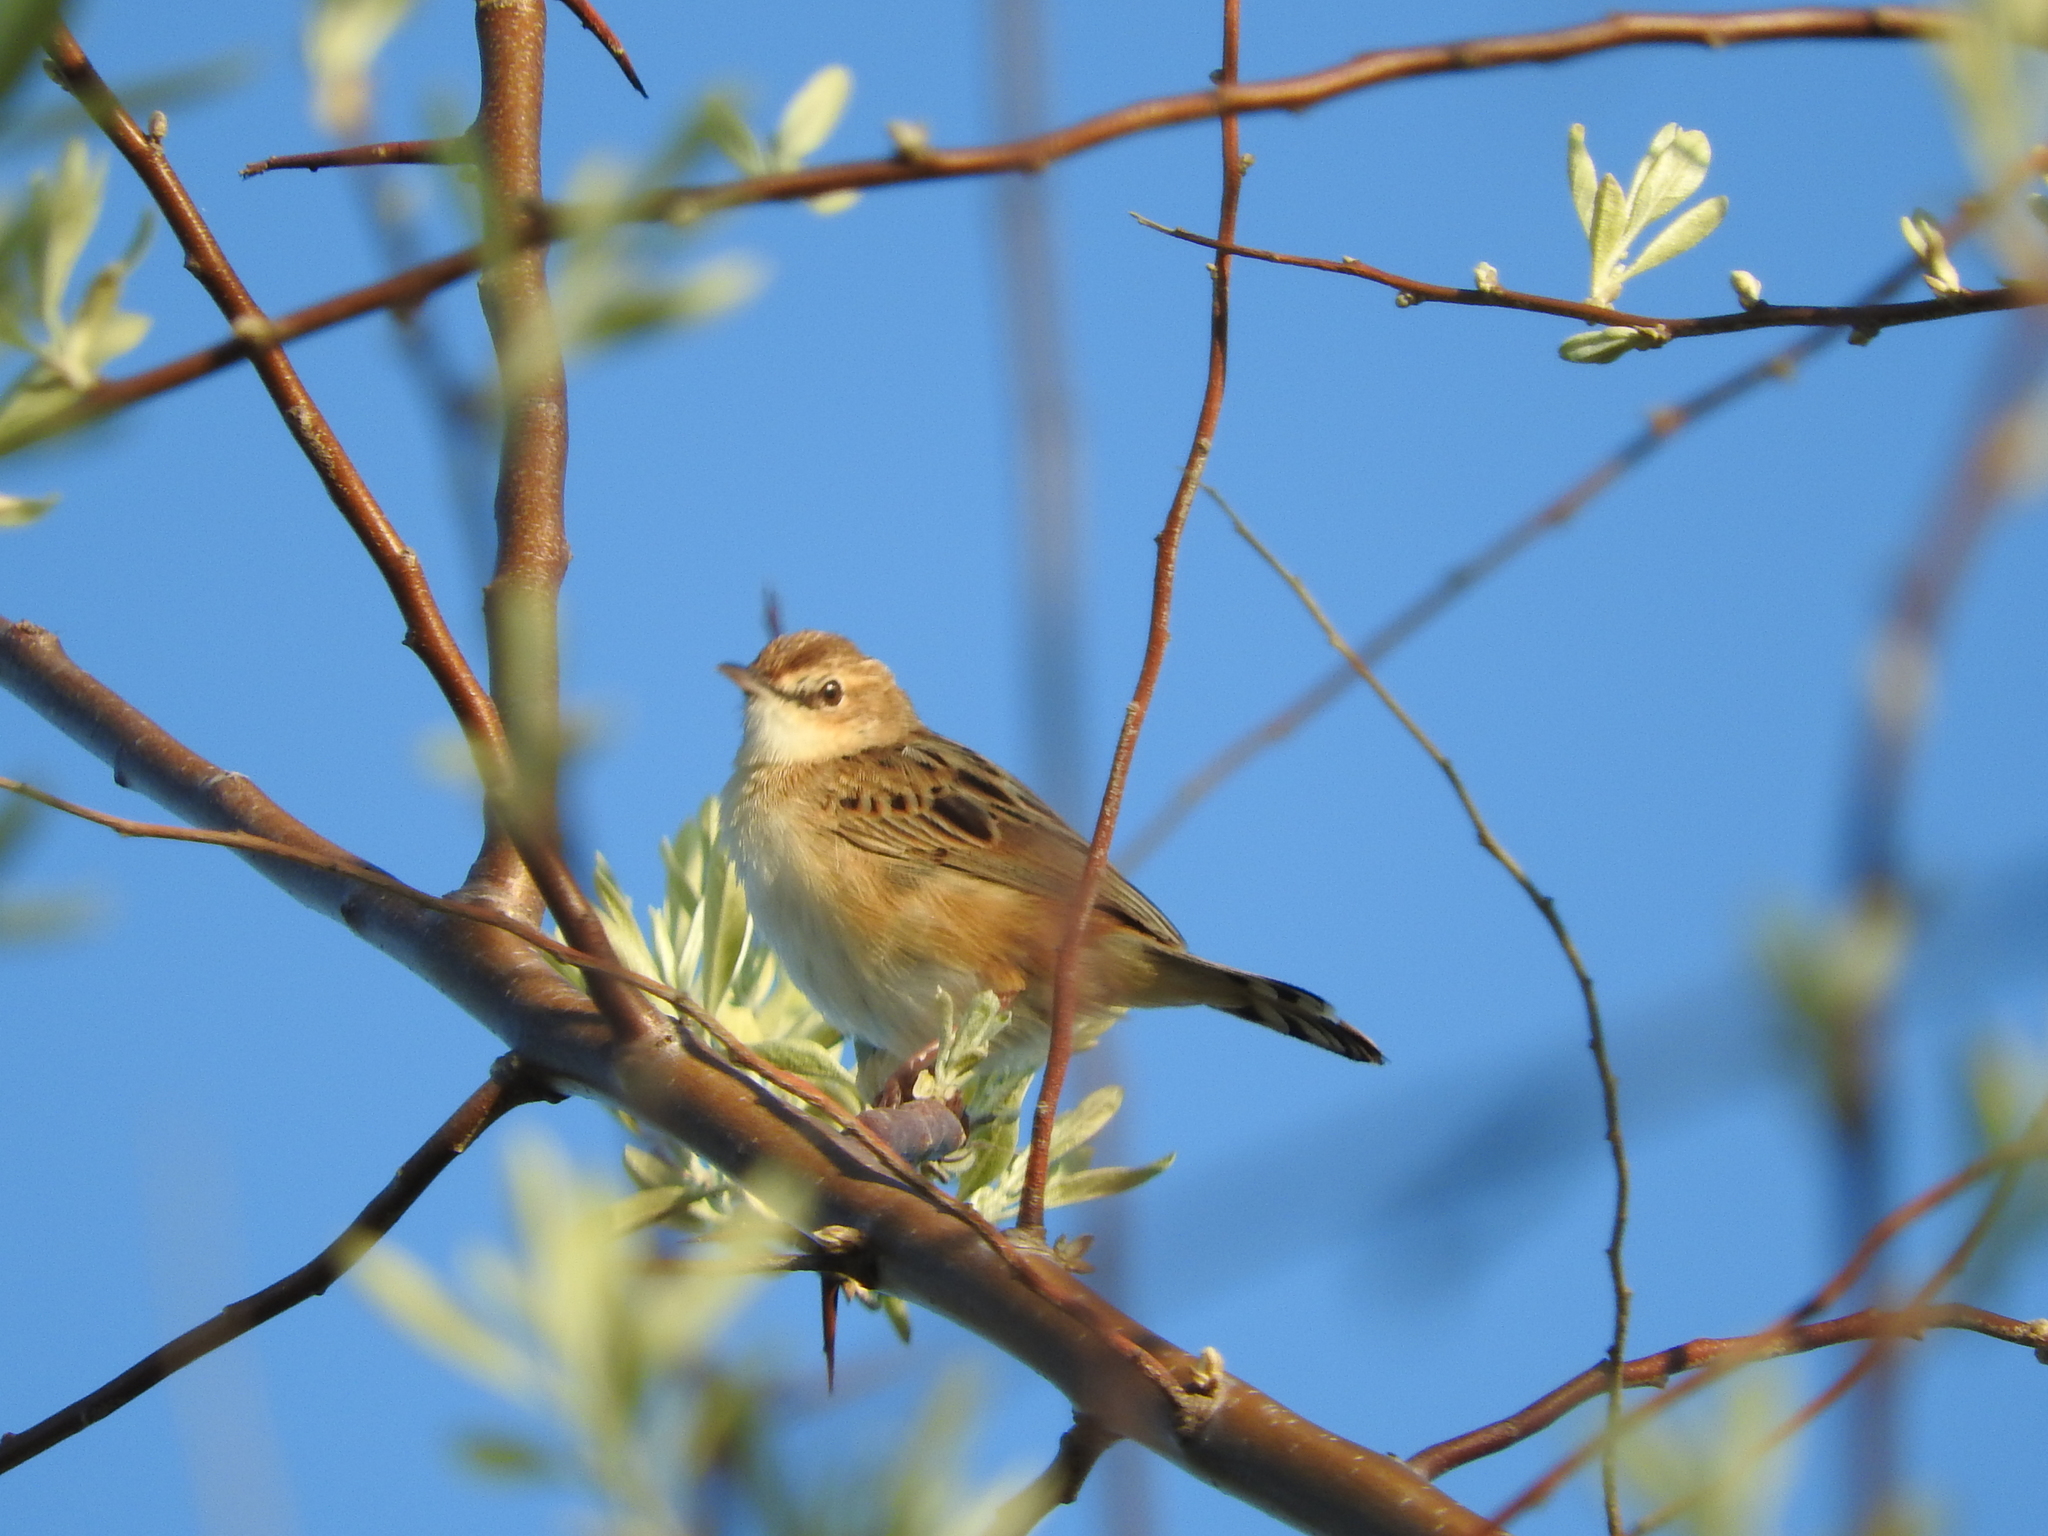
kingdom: Animalia
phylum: Chordata
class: Aves
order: Passeriformes
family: Cisticolidae
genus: Cisticola
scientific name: Cisticola juncidis
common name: Zitting cisticola
